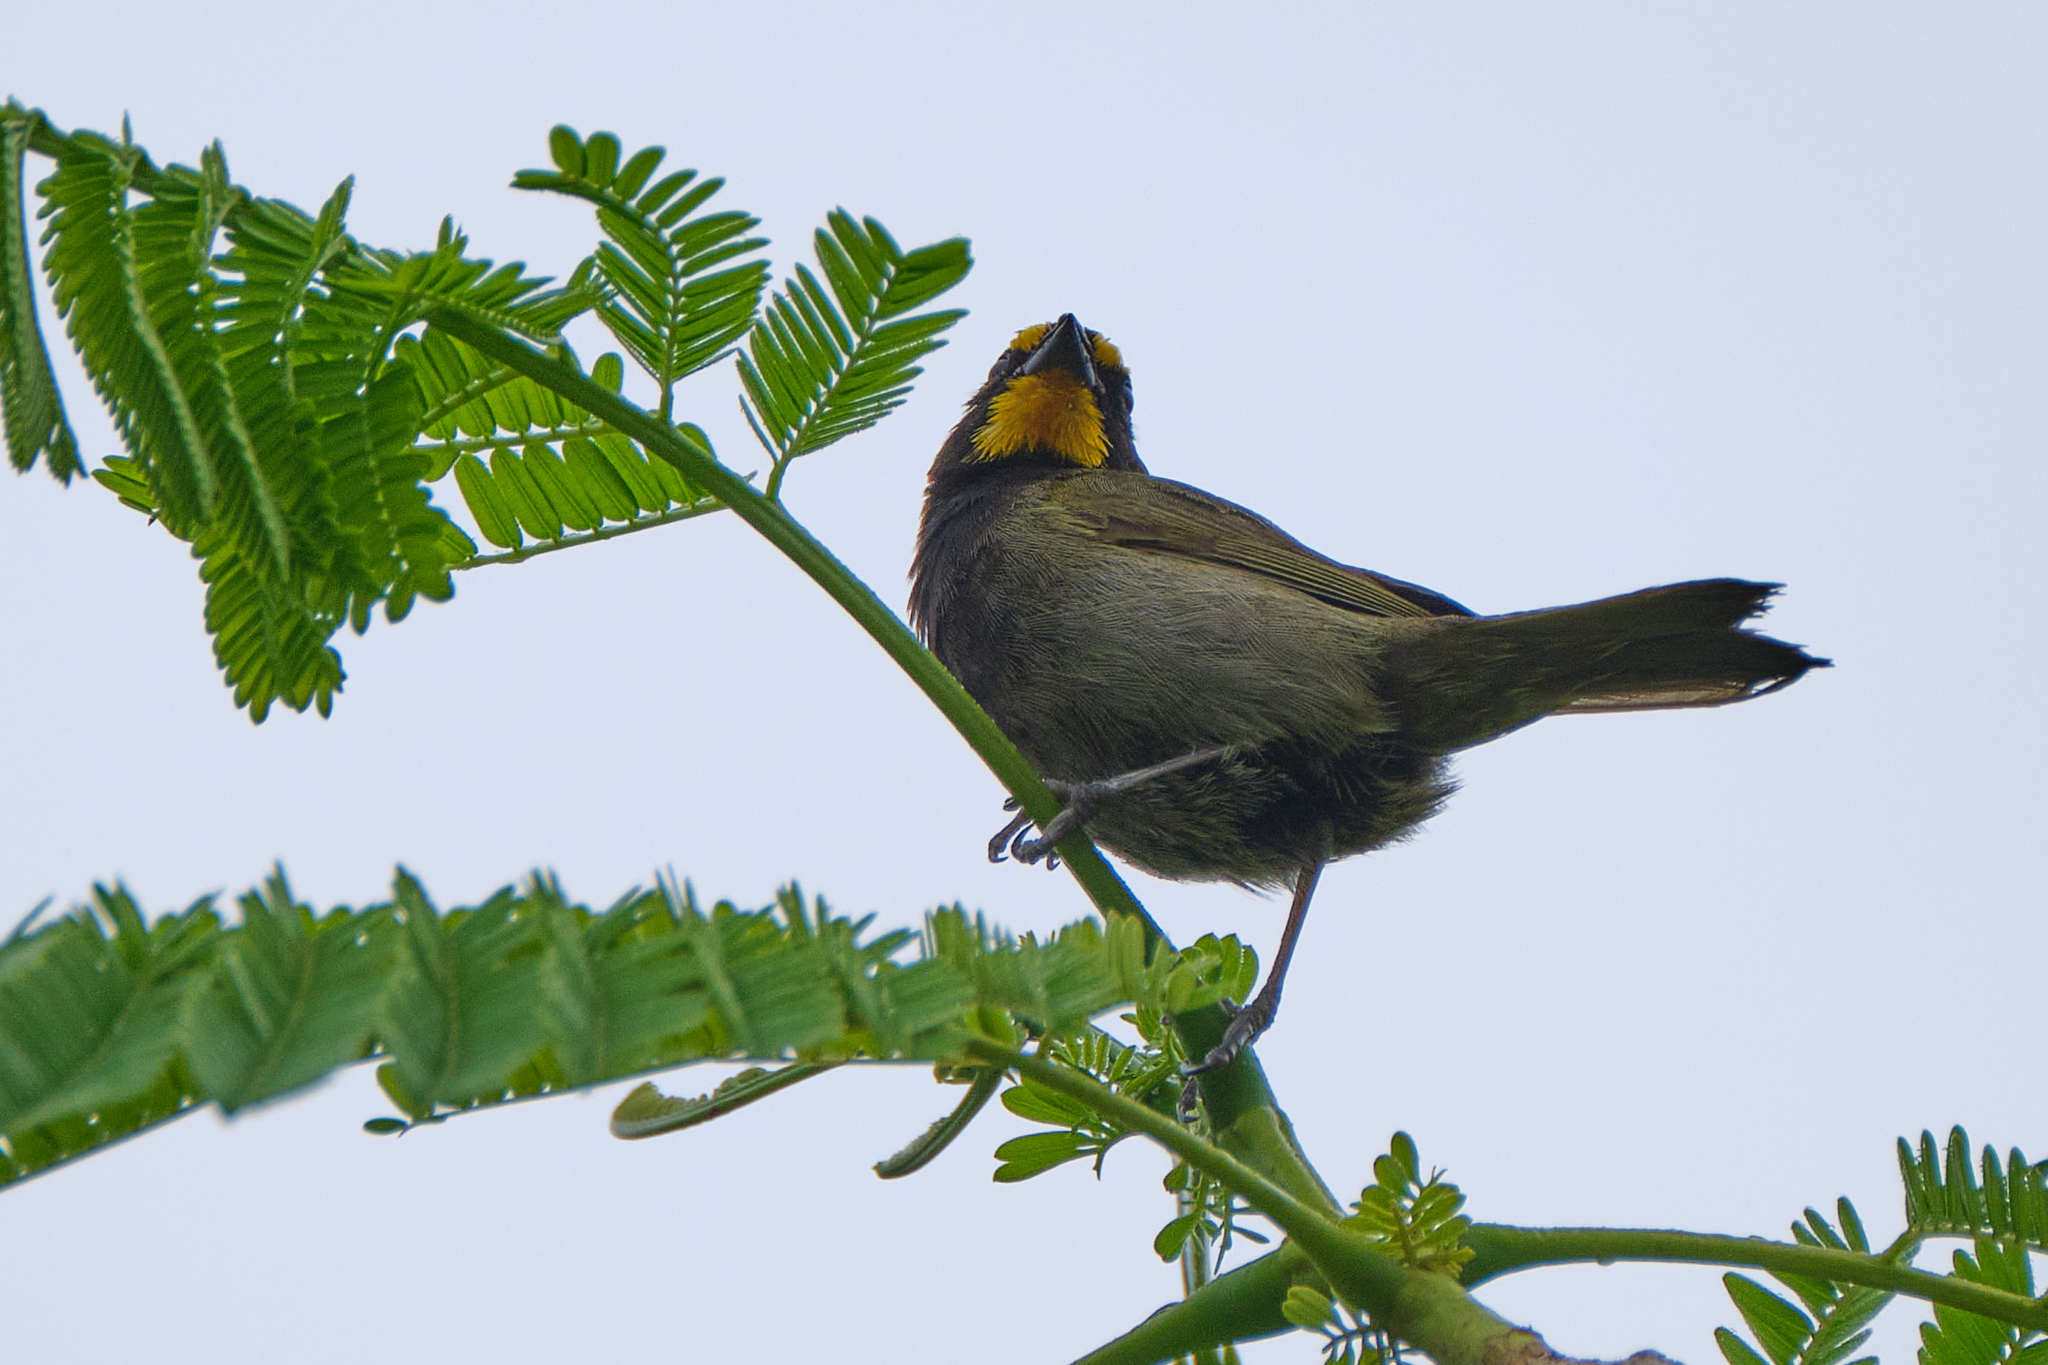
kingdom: Animalia
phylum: Chordata
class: Aves
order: Passeriformes
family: Thraupidae
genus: Tiaris
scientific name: Tiaris olivaceus
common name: Yellow-faced grassquit
